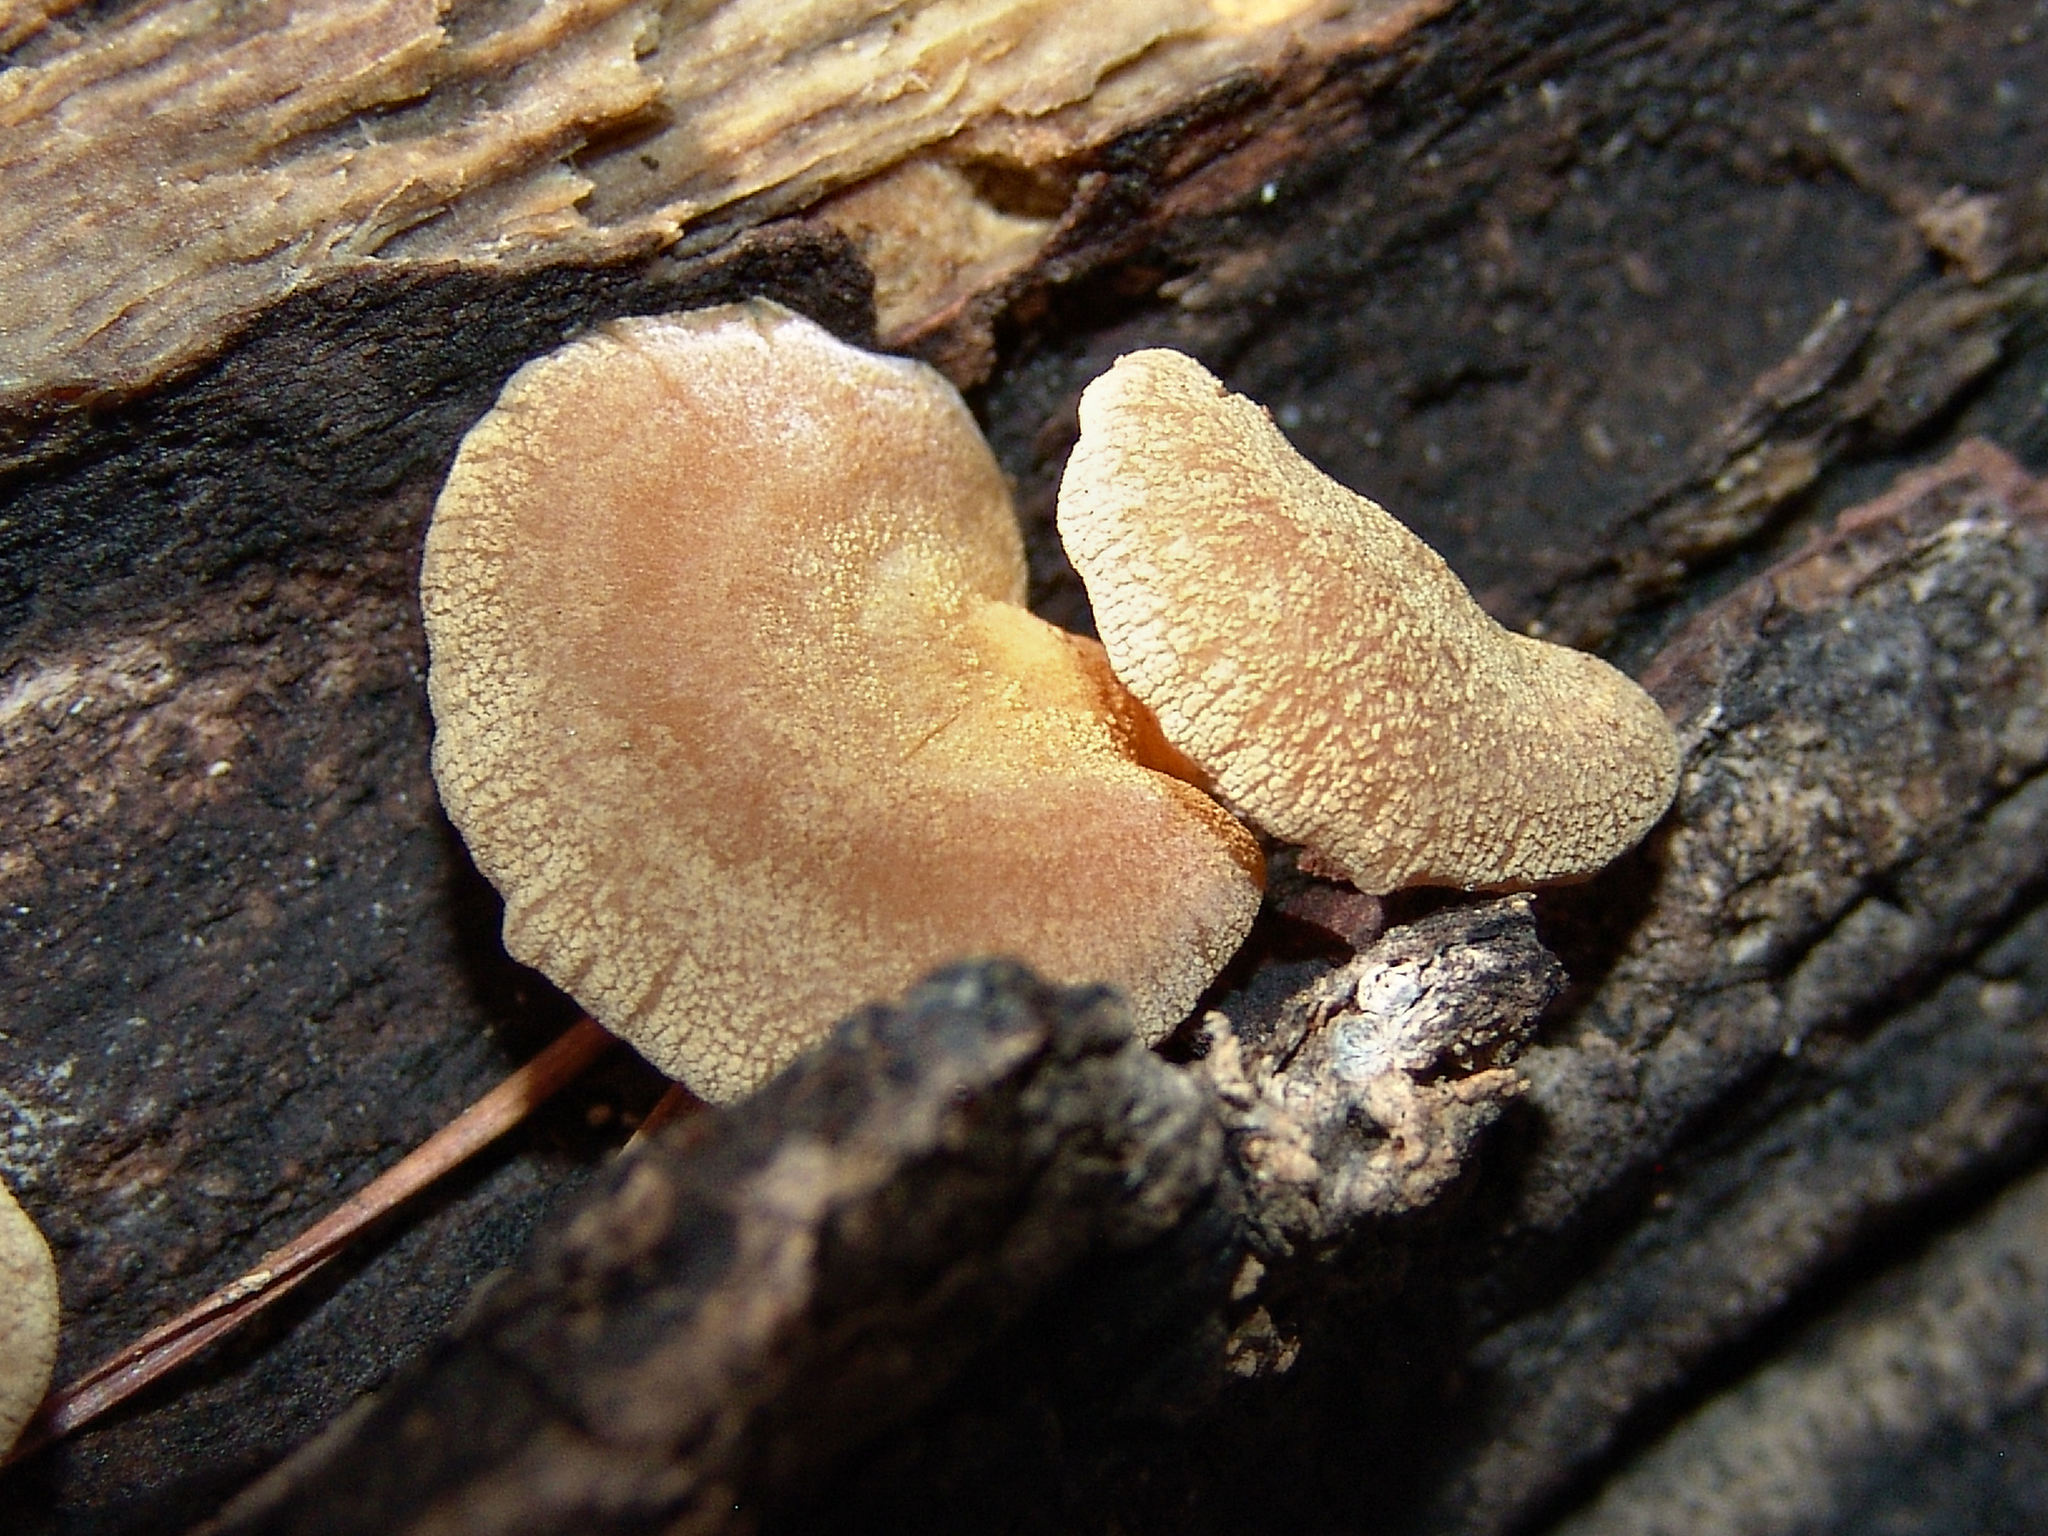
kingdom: Fungi
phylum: Basidiomycota
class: Agaricomycetes
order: Agaricales
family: Mycenaceae
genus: Panellus
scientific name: Panellus stipticus
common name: Bitter oysterling
